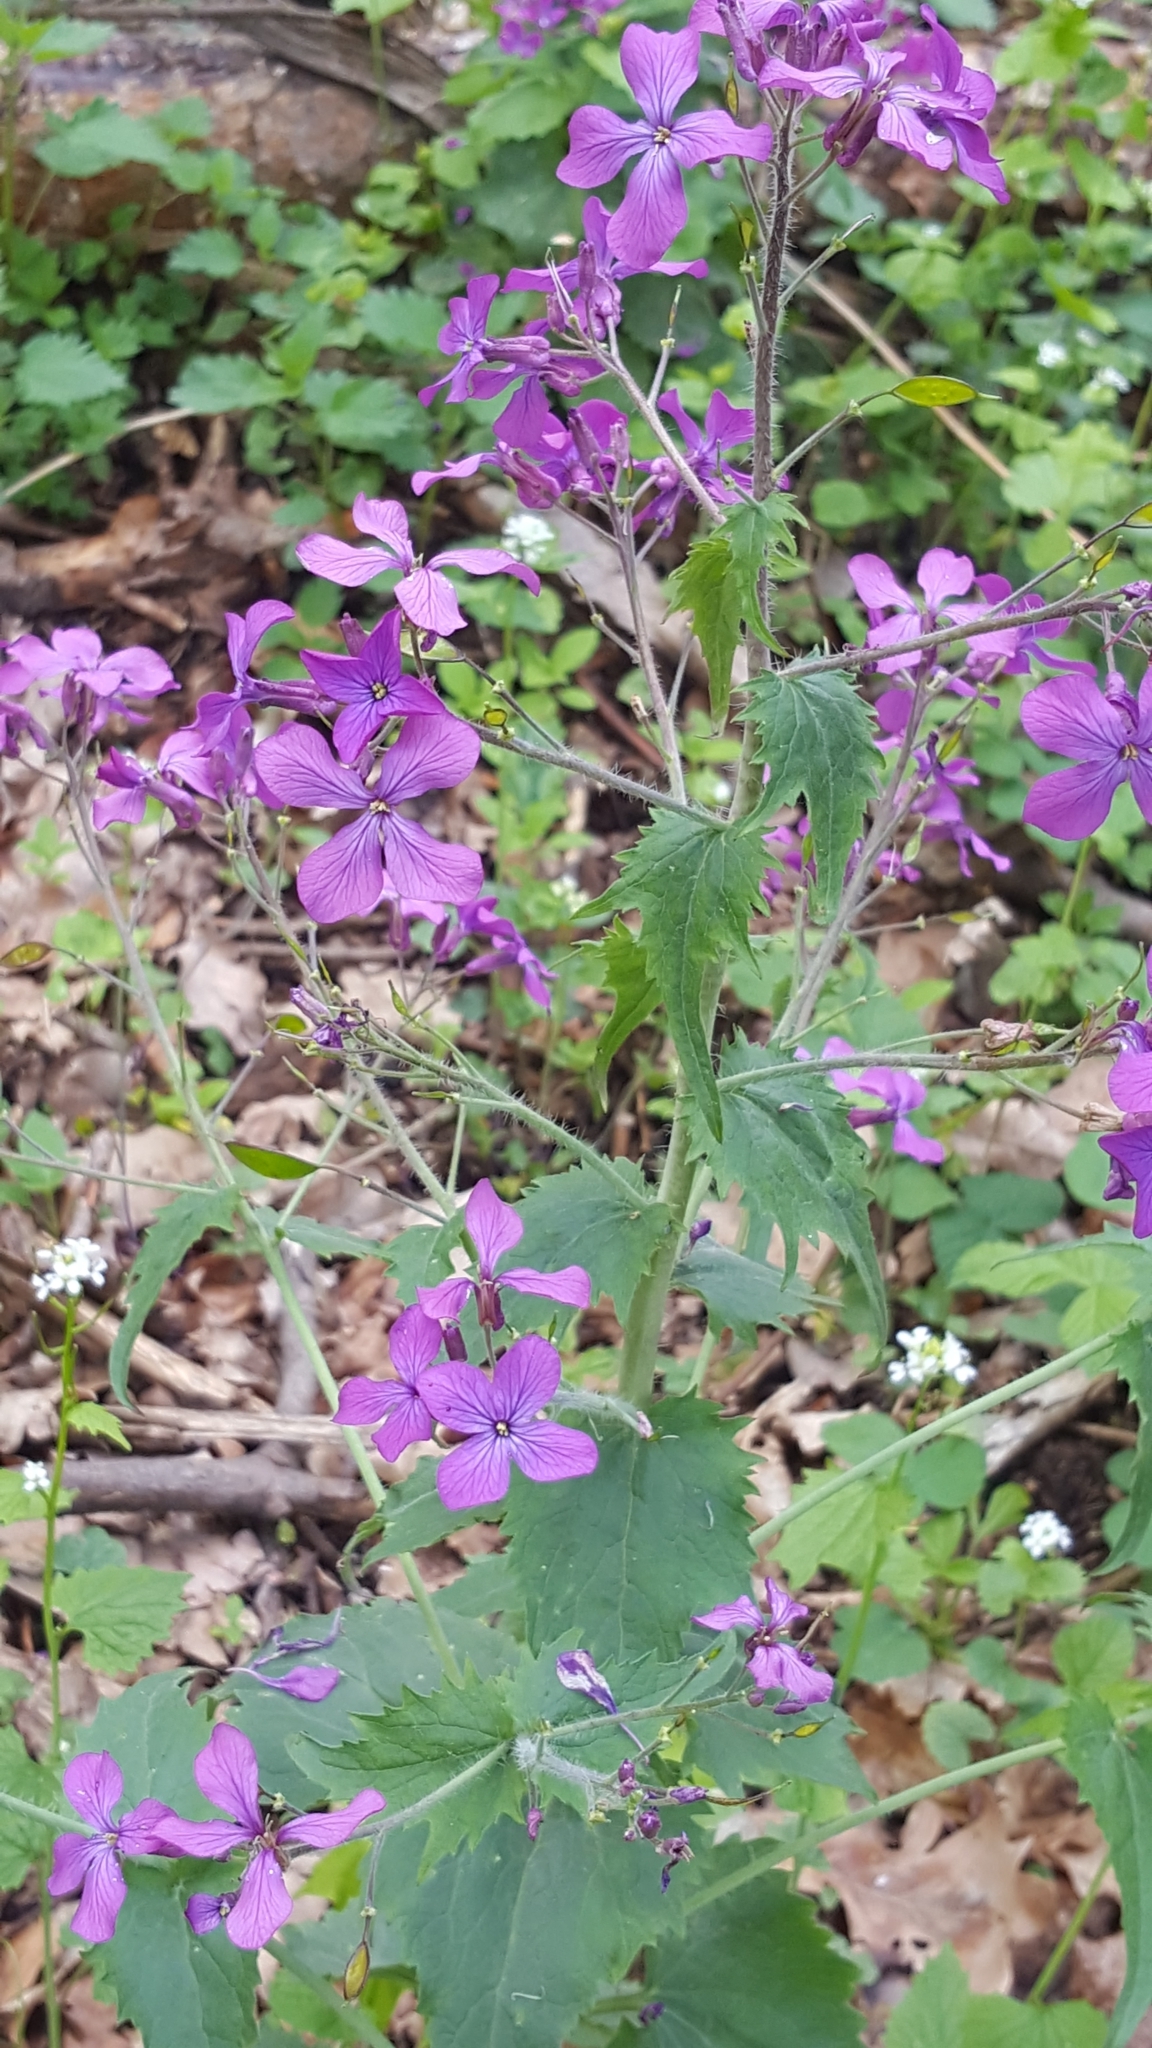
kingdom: Plantae
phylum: Tracheophyta
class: Magnoliopsida
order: Brassicales
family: Brassicaceae
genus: Lunaria
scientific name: Lunaria annua
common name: Honesty
